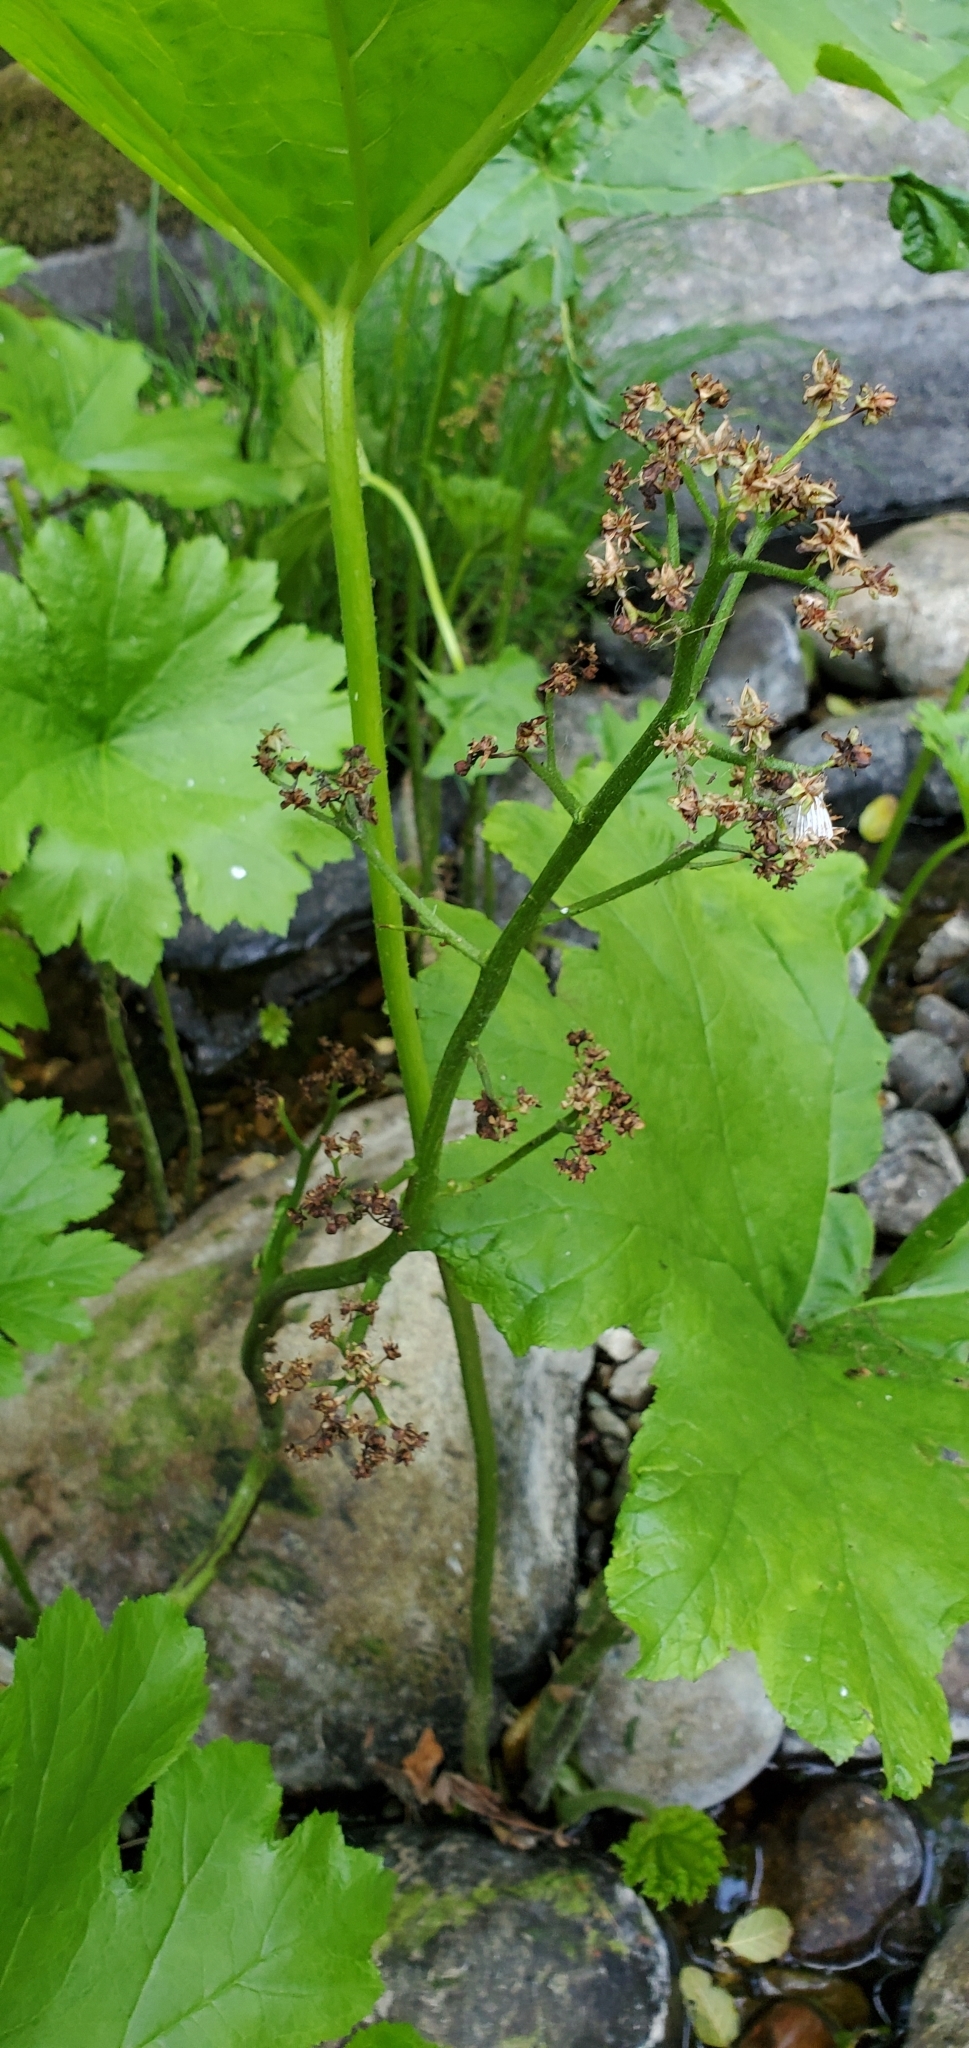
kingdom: Plantae
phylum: Tracheophyta
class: Magnoliopsida
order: Saxifragales
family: Saxifragaceae
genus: Darmera
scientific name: Darmera peltata
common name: Indian-rhubarb
